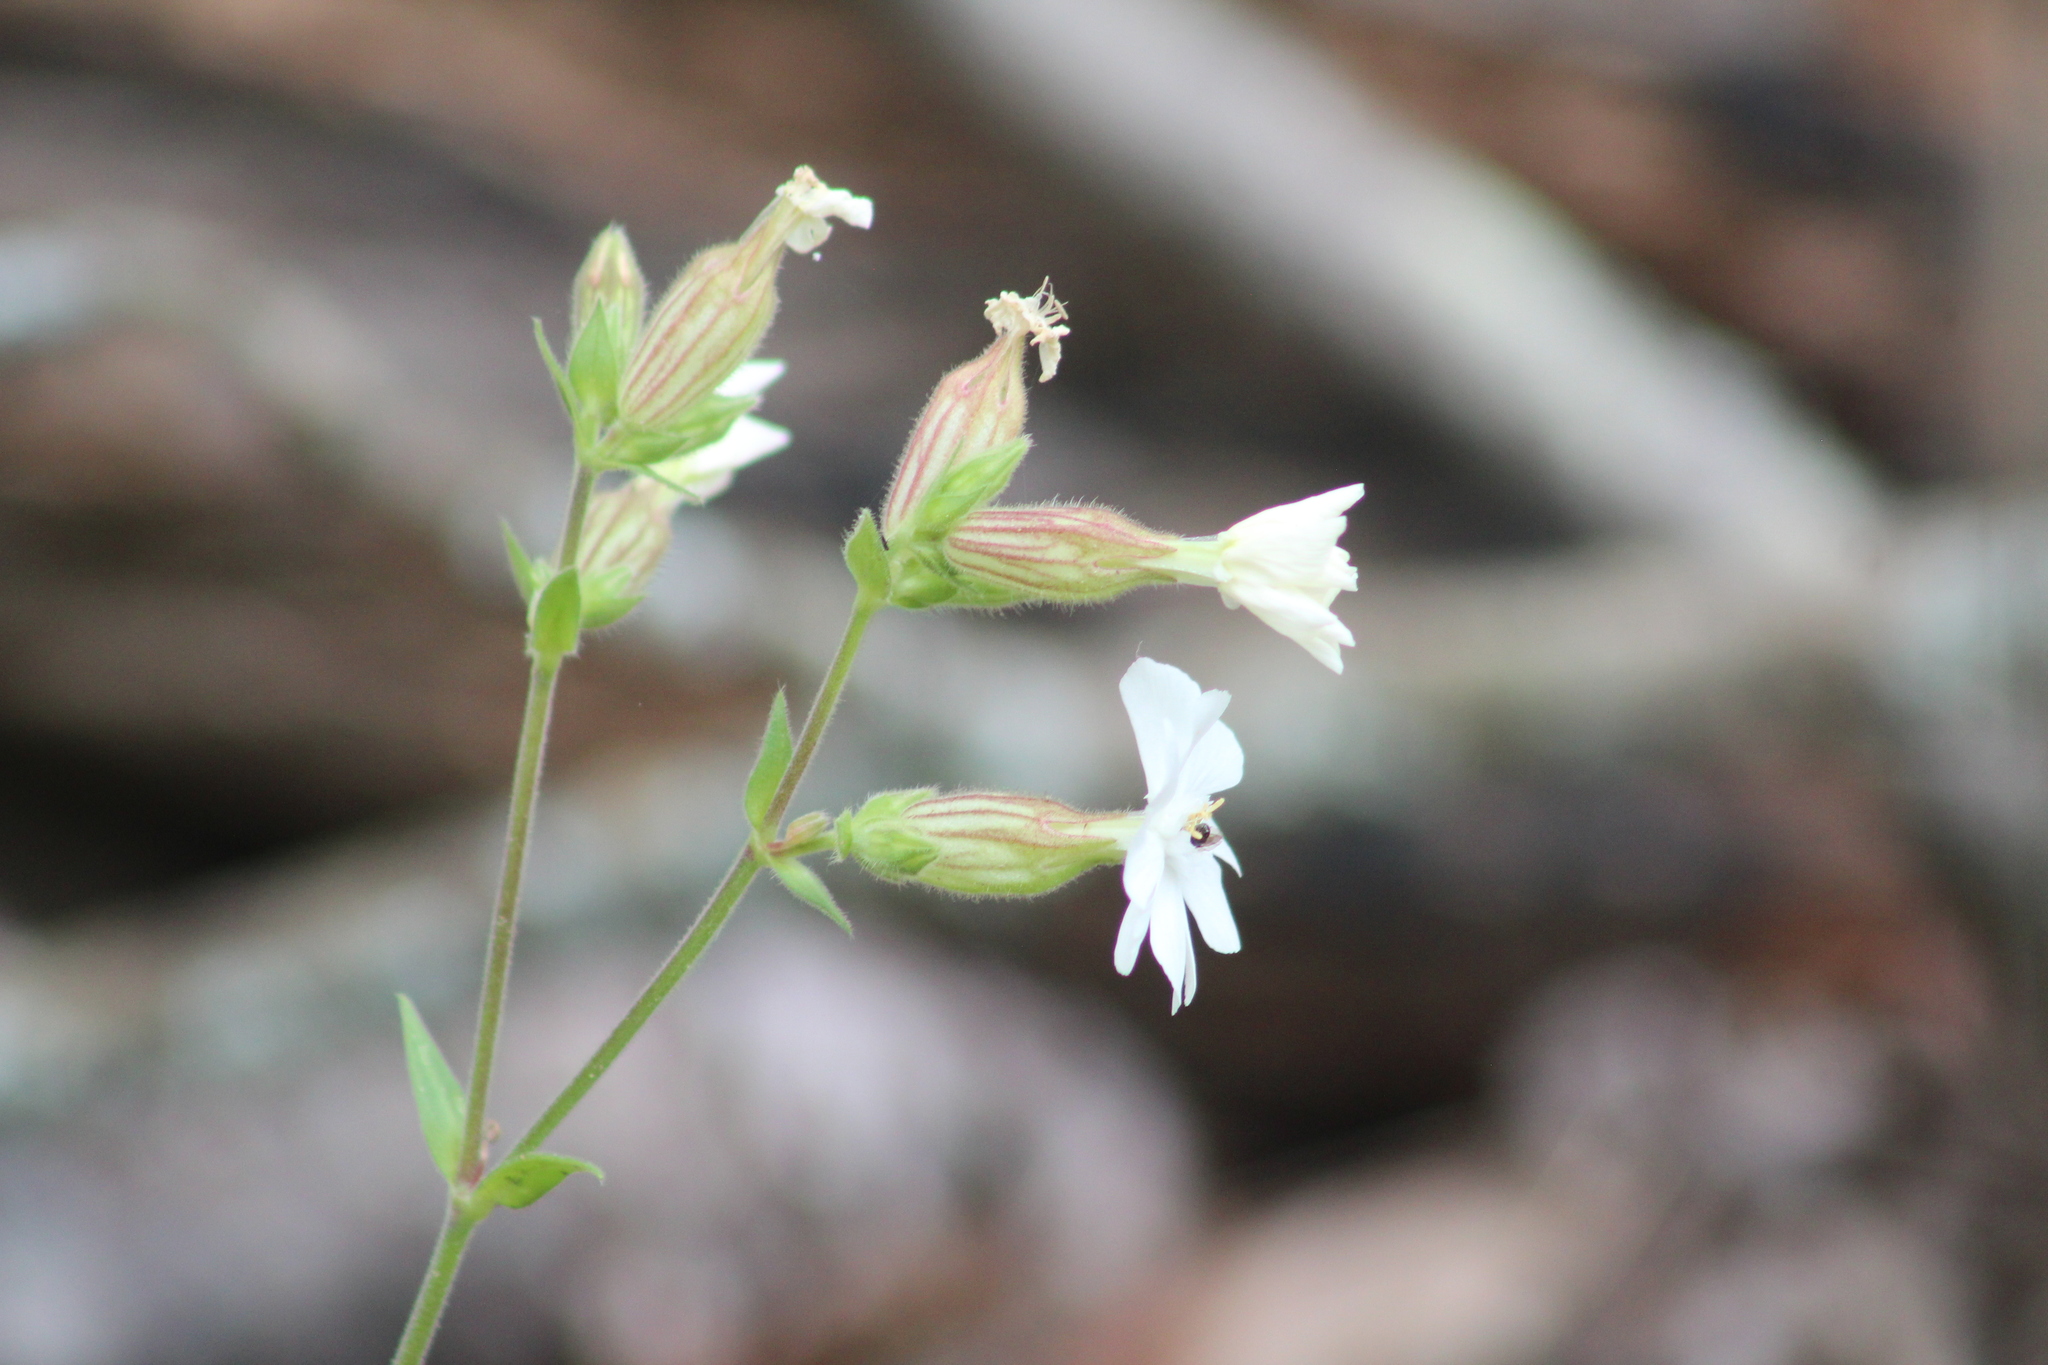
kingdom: Plantae
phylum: Tracheophyta
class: Magnoliopsida
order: Caryophyllales
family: Caryophyllaceae
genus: Silene
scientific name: Silene latifolia
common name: White campion
